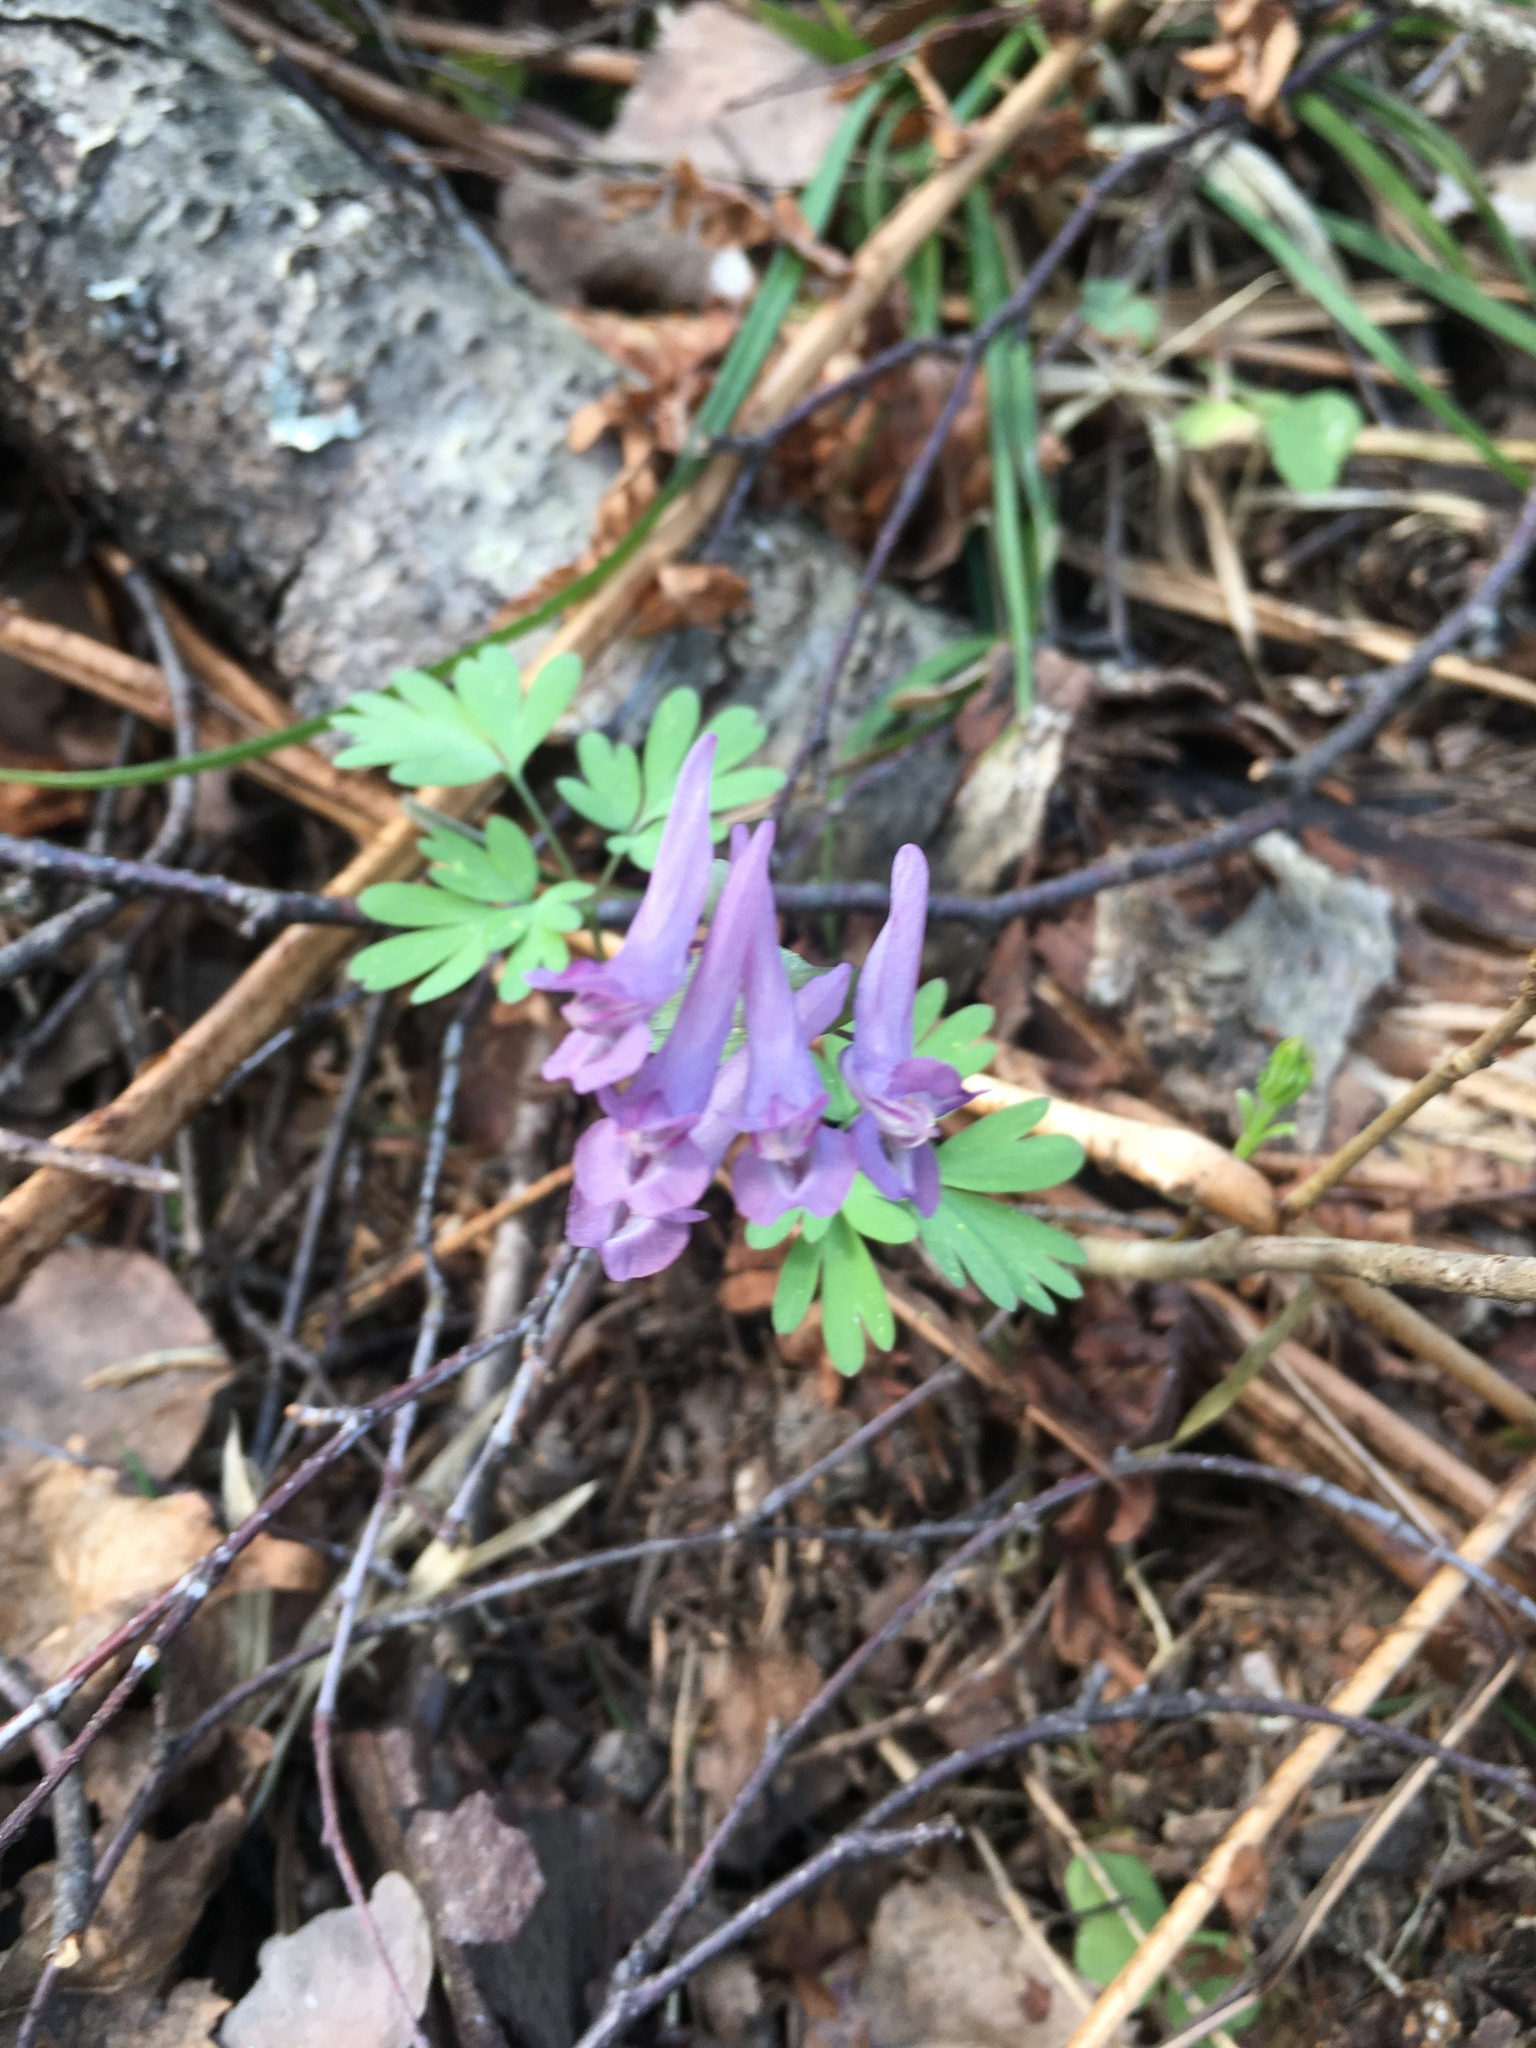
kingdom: Plantae
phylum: Tracheophyta
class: Magnoliopsida
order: Ranunculales
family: Papaveraceae
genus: Corydalis
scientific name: Corydalis solida
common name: Bird-in-a-bush
